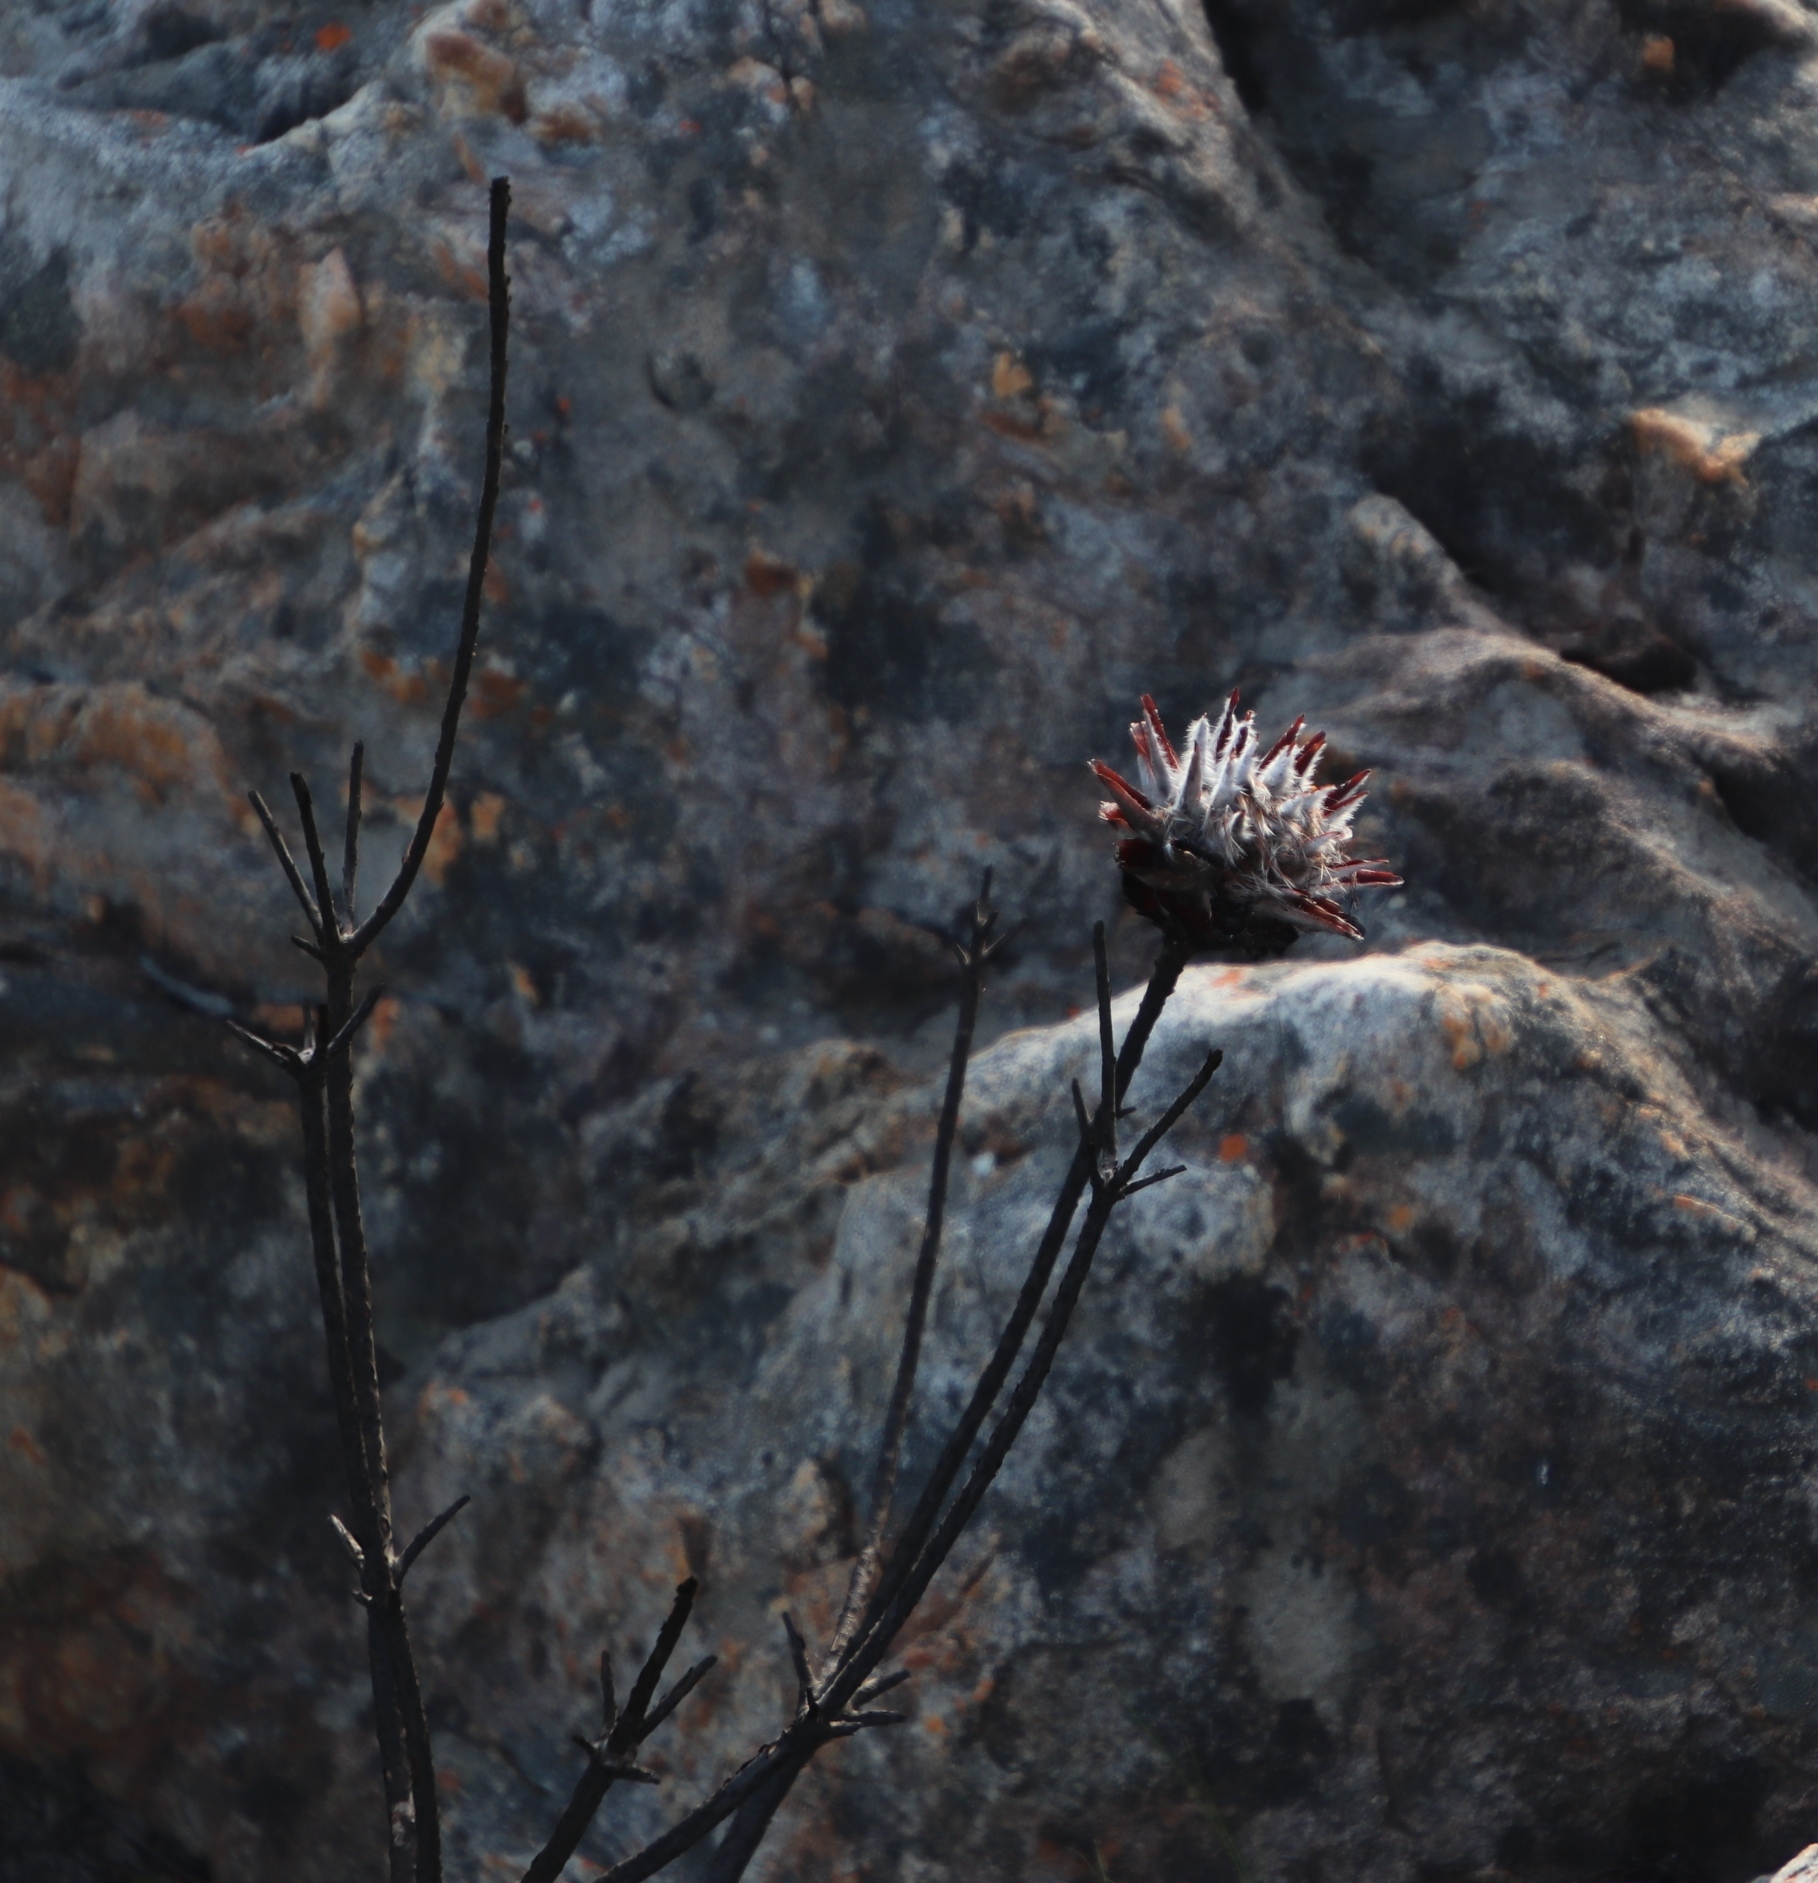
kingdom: Plantae
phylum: Tracheophyta
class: Magnoliopsida
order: Proteales
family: Proteaceae
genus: Leucadendron
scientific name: Leucadendron rubrum
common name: Spinning top
